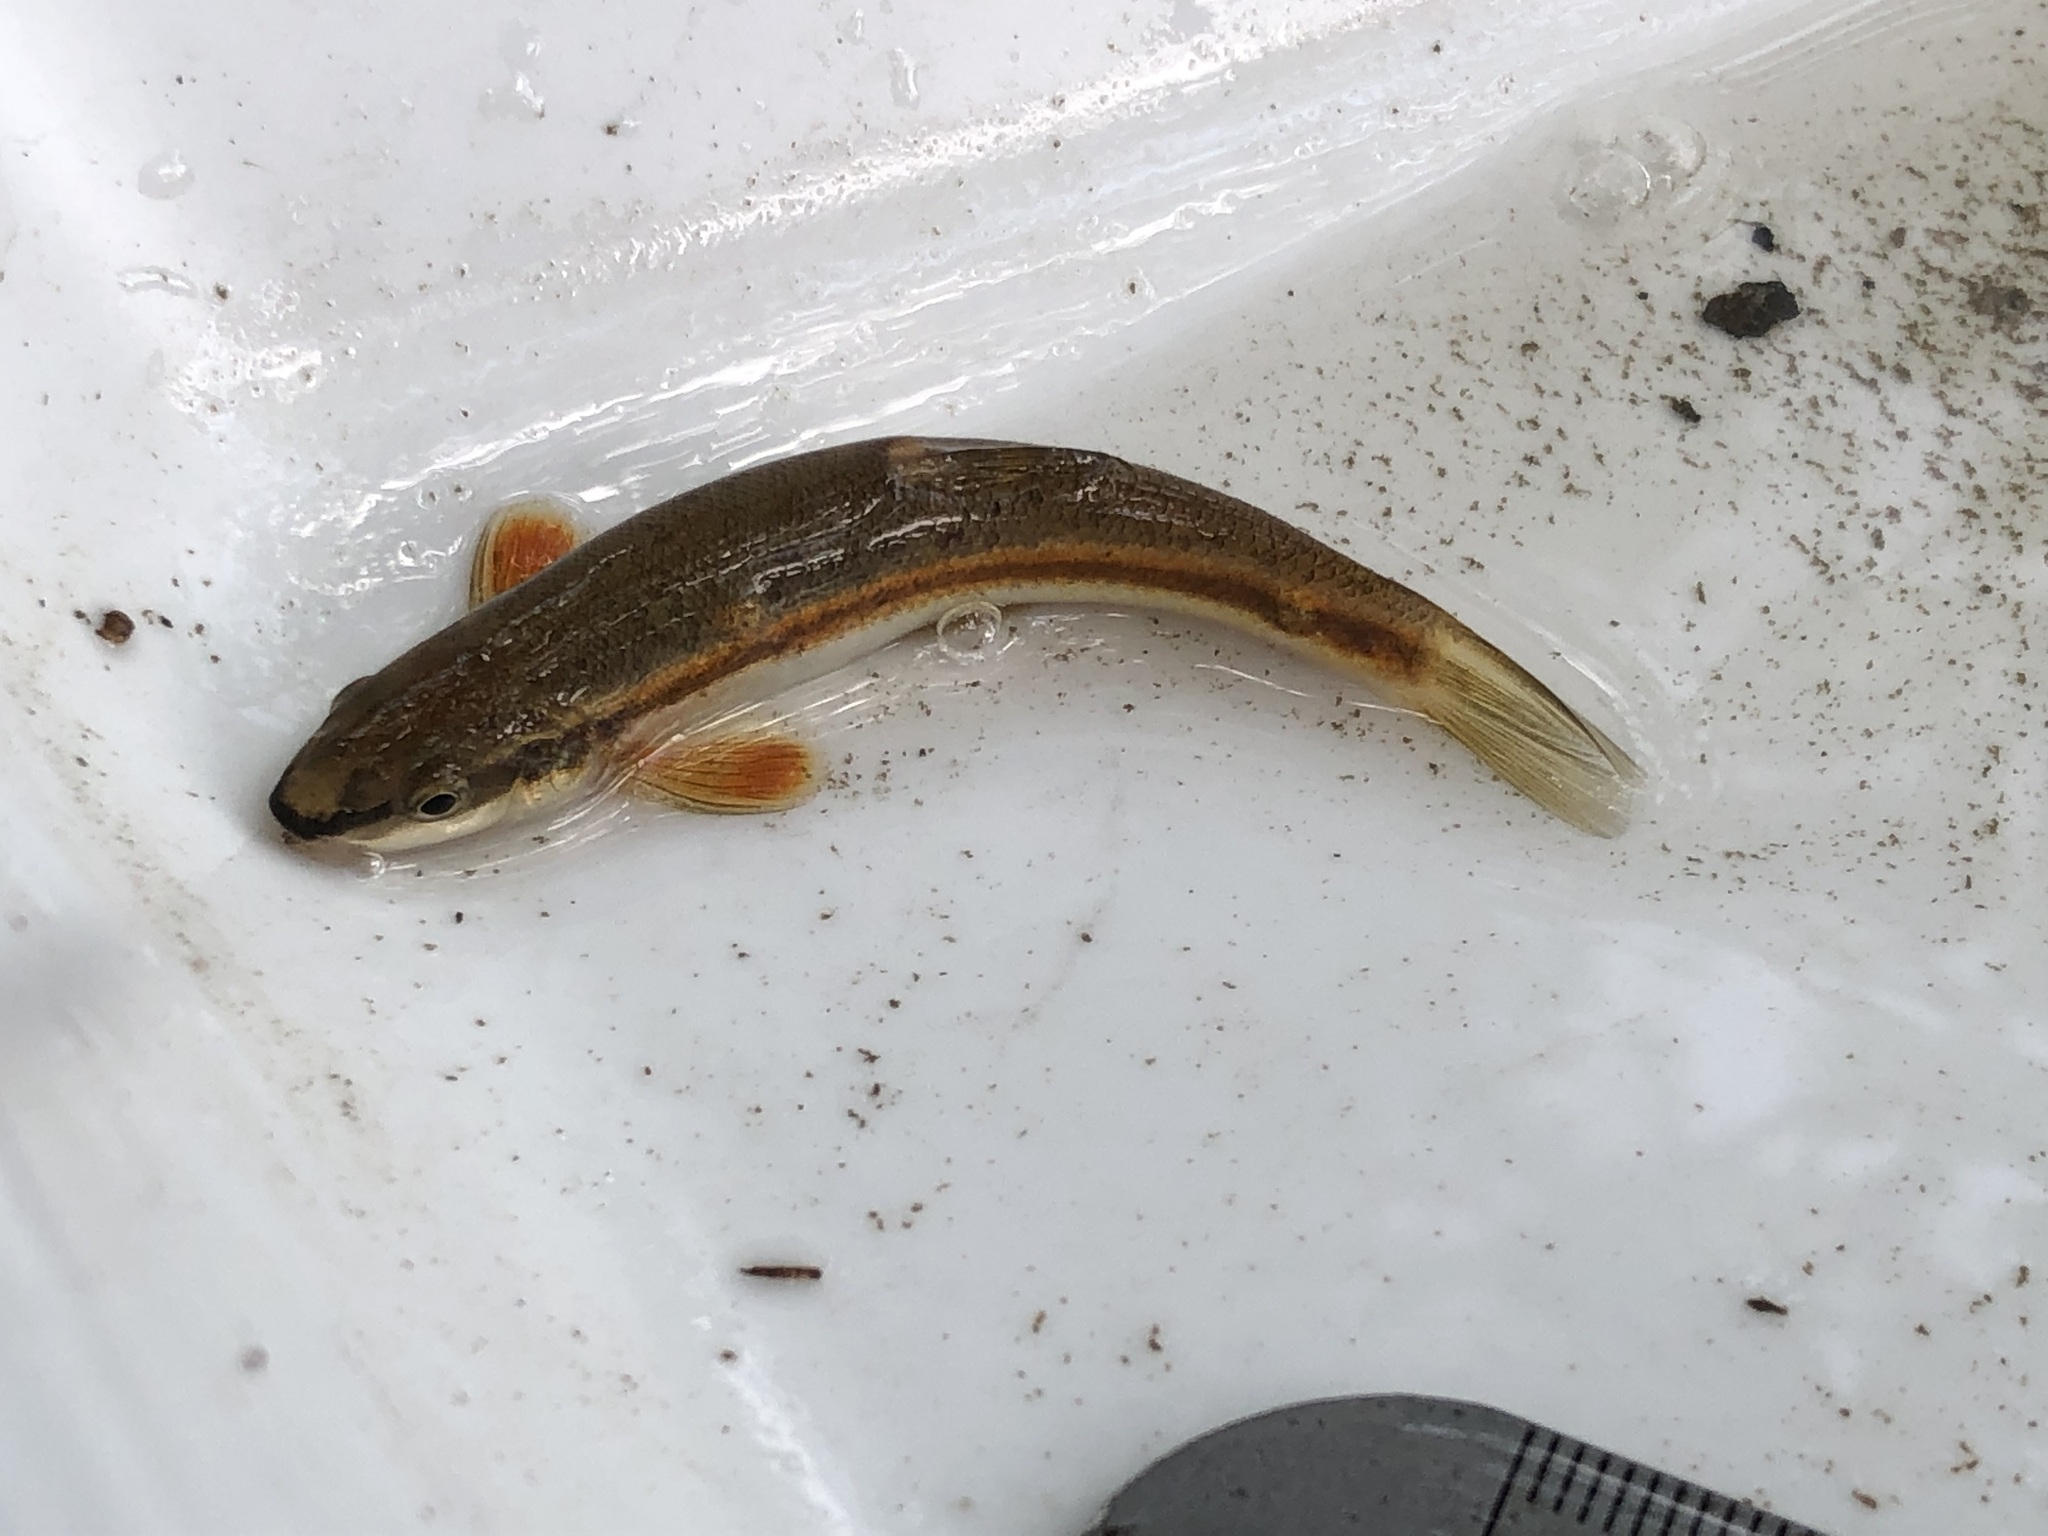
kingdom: Animalia
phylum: Chordata
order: Cypriniformes
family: Cyprinidae
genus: Rhinichthys
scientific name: Rhinichthys atratulus
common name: Eastern blacknose dace
